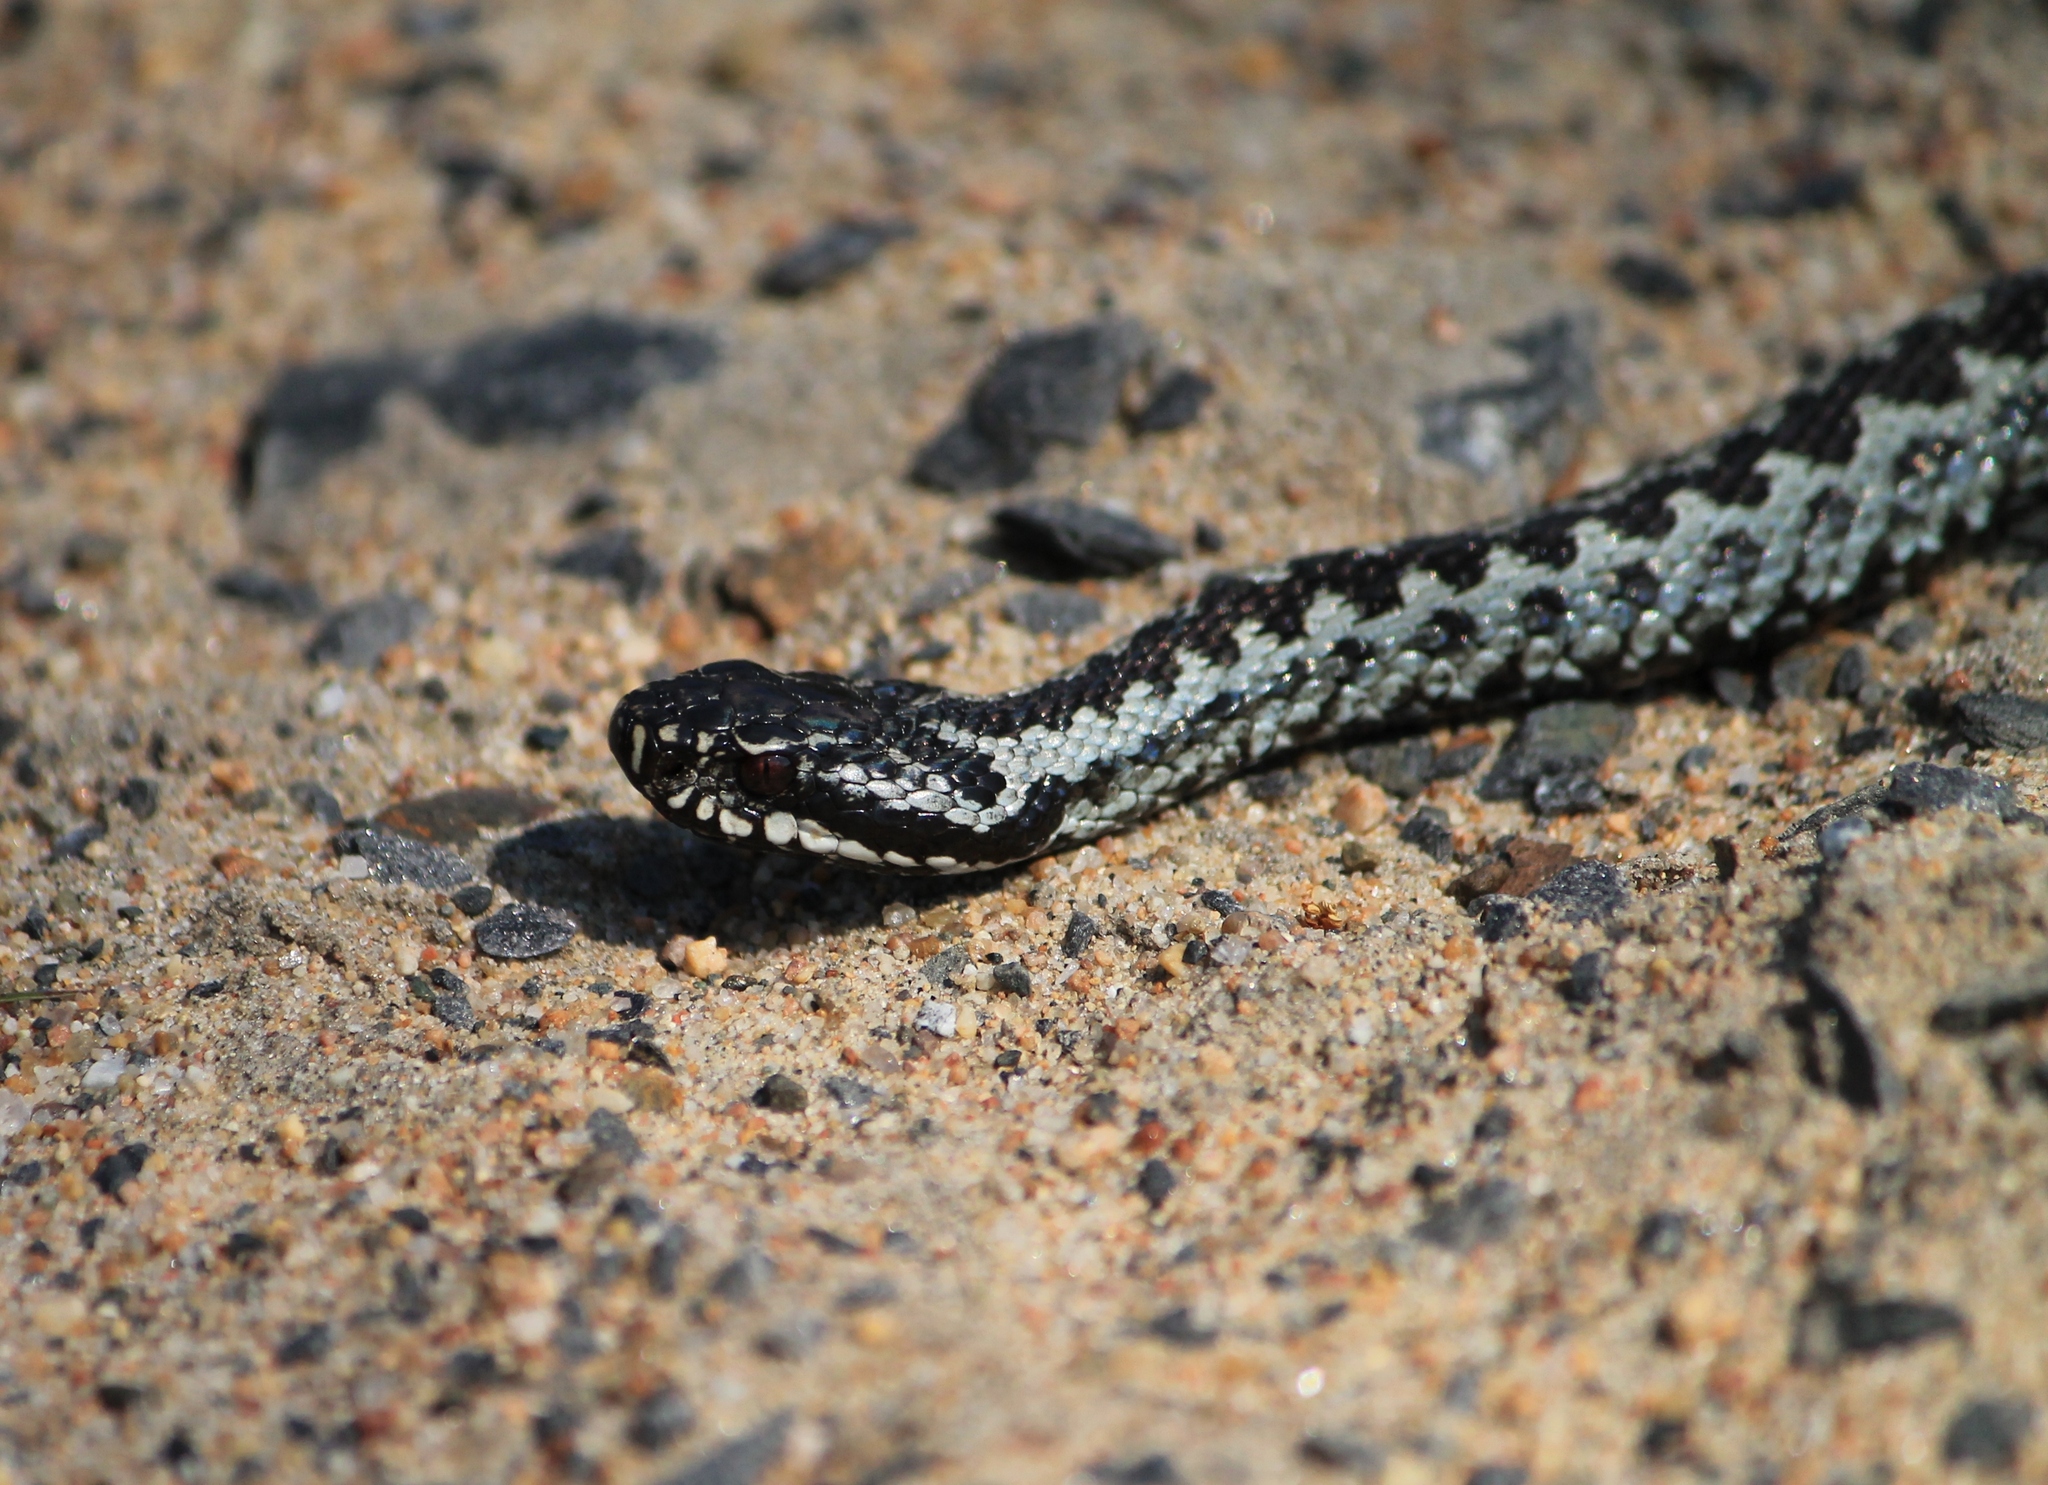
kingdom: Animalia
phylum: Chordata
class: Squamata
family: Viperidae
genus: Vipera
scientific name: Vipera berus
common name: Adder
